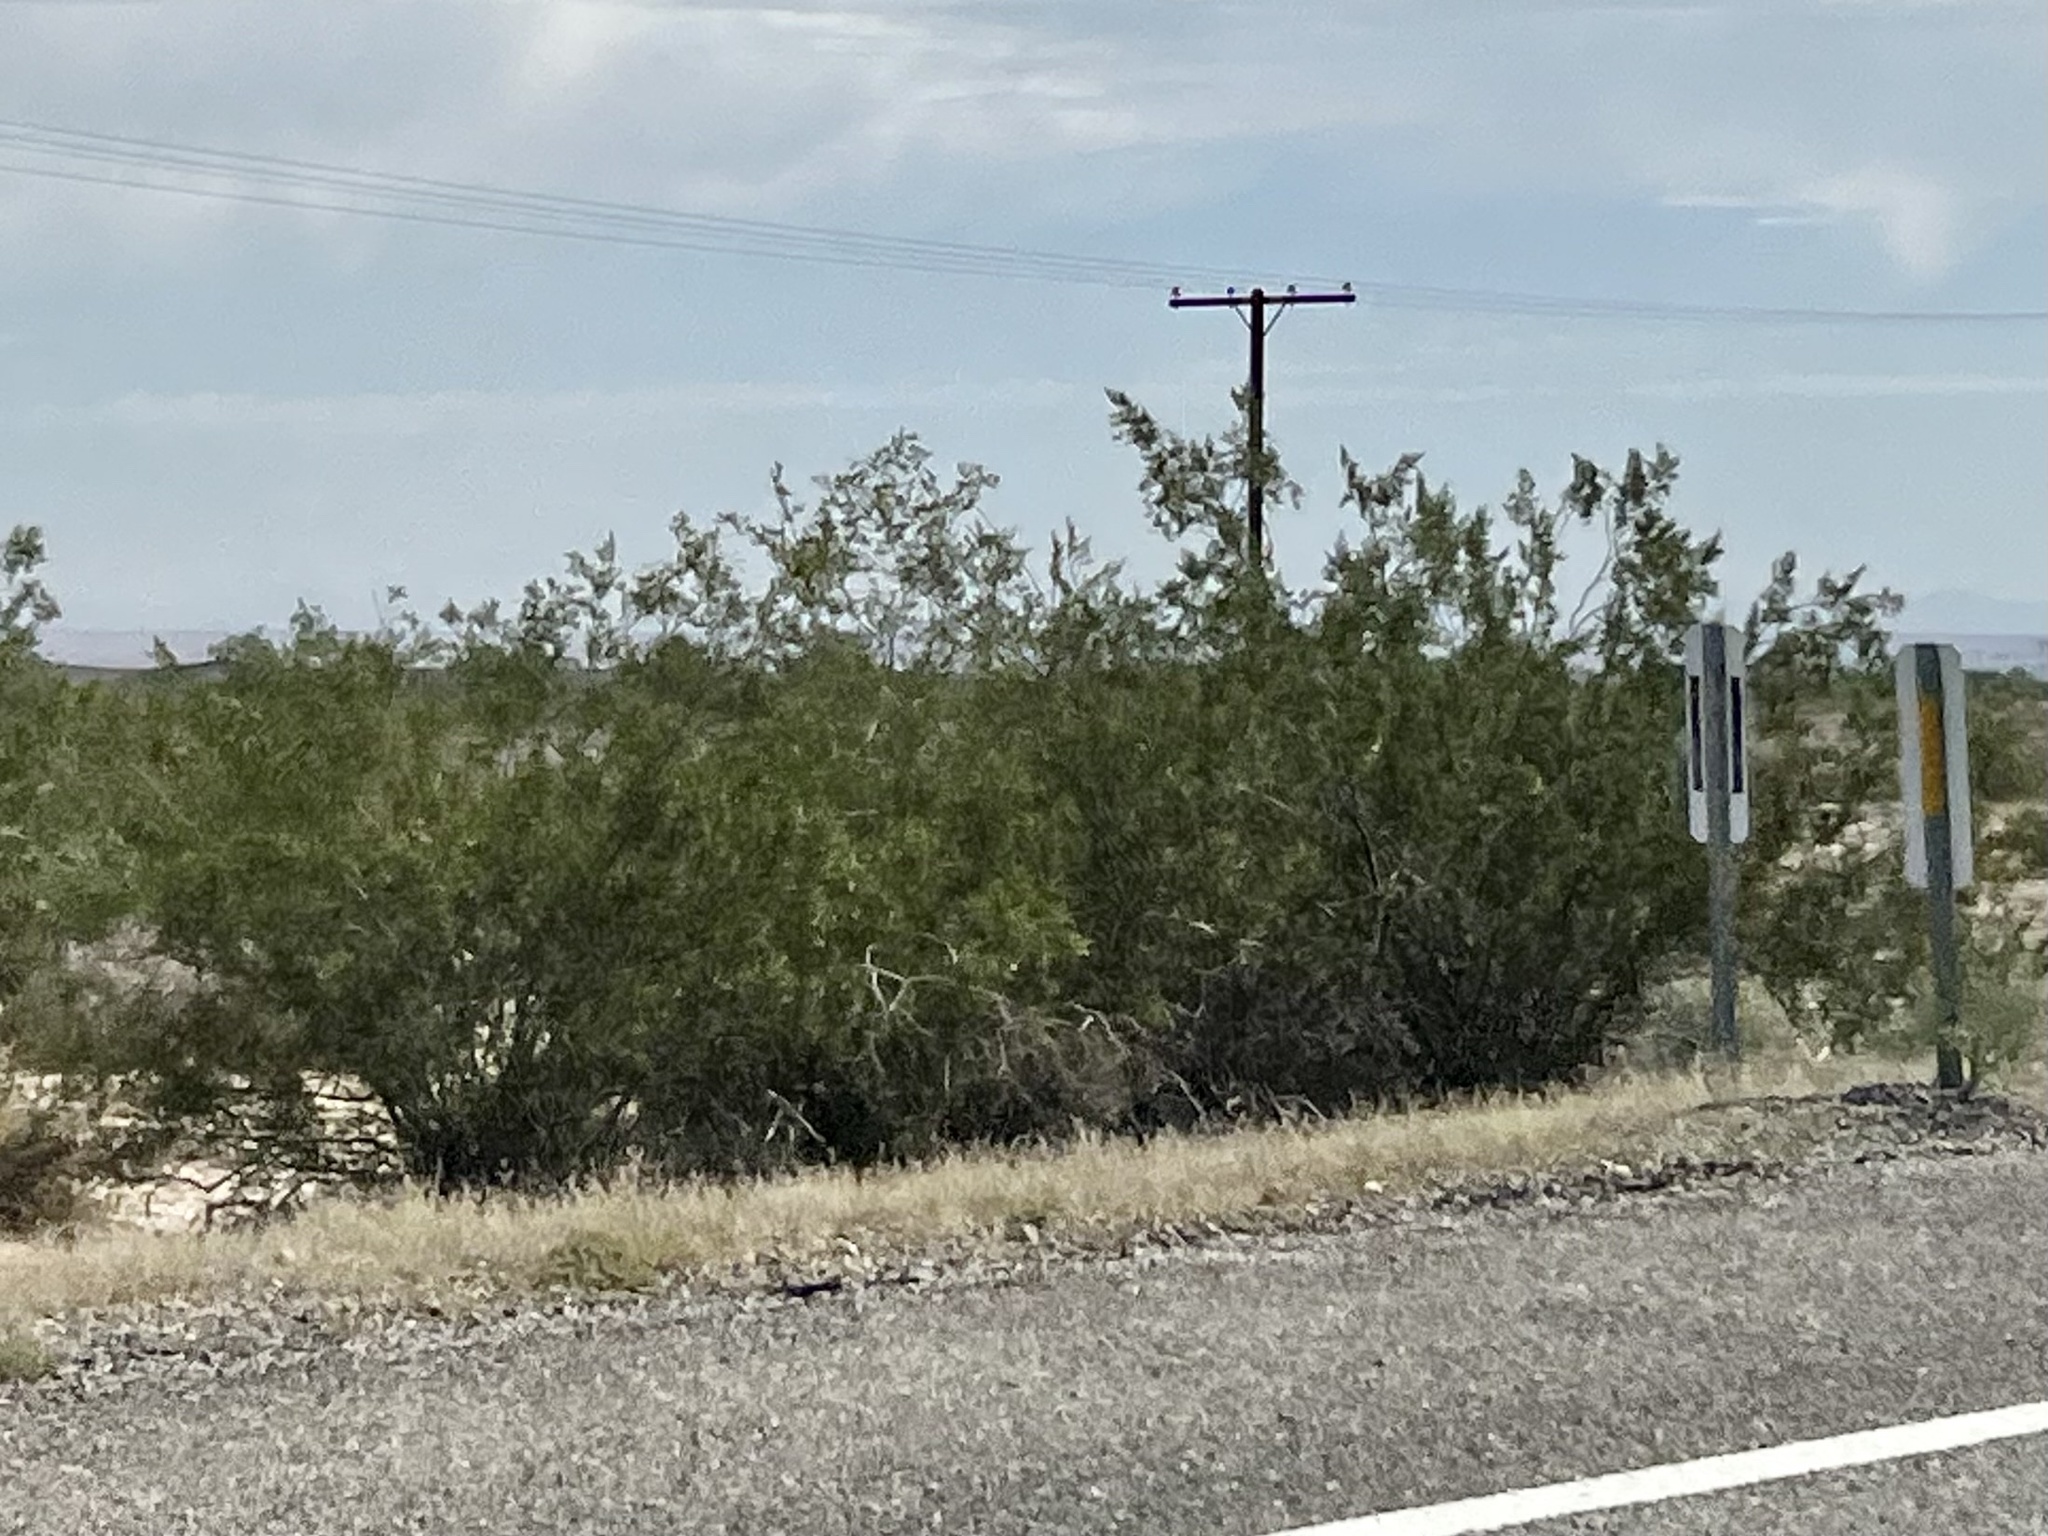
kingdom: Plantae
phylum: Tracheophyta
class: Magnoliopsida
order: Zygophyllales
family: Zygophyllaceae
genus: Larrea
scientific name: Larrea tridentata
